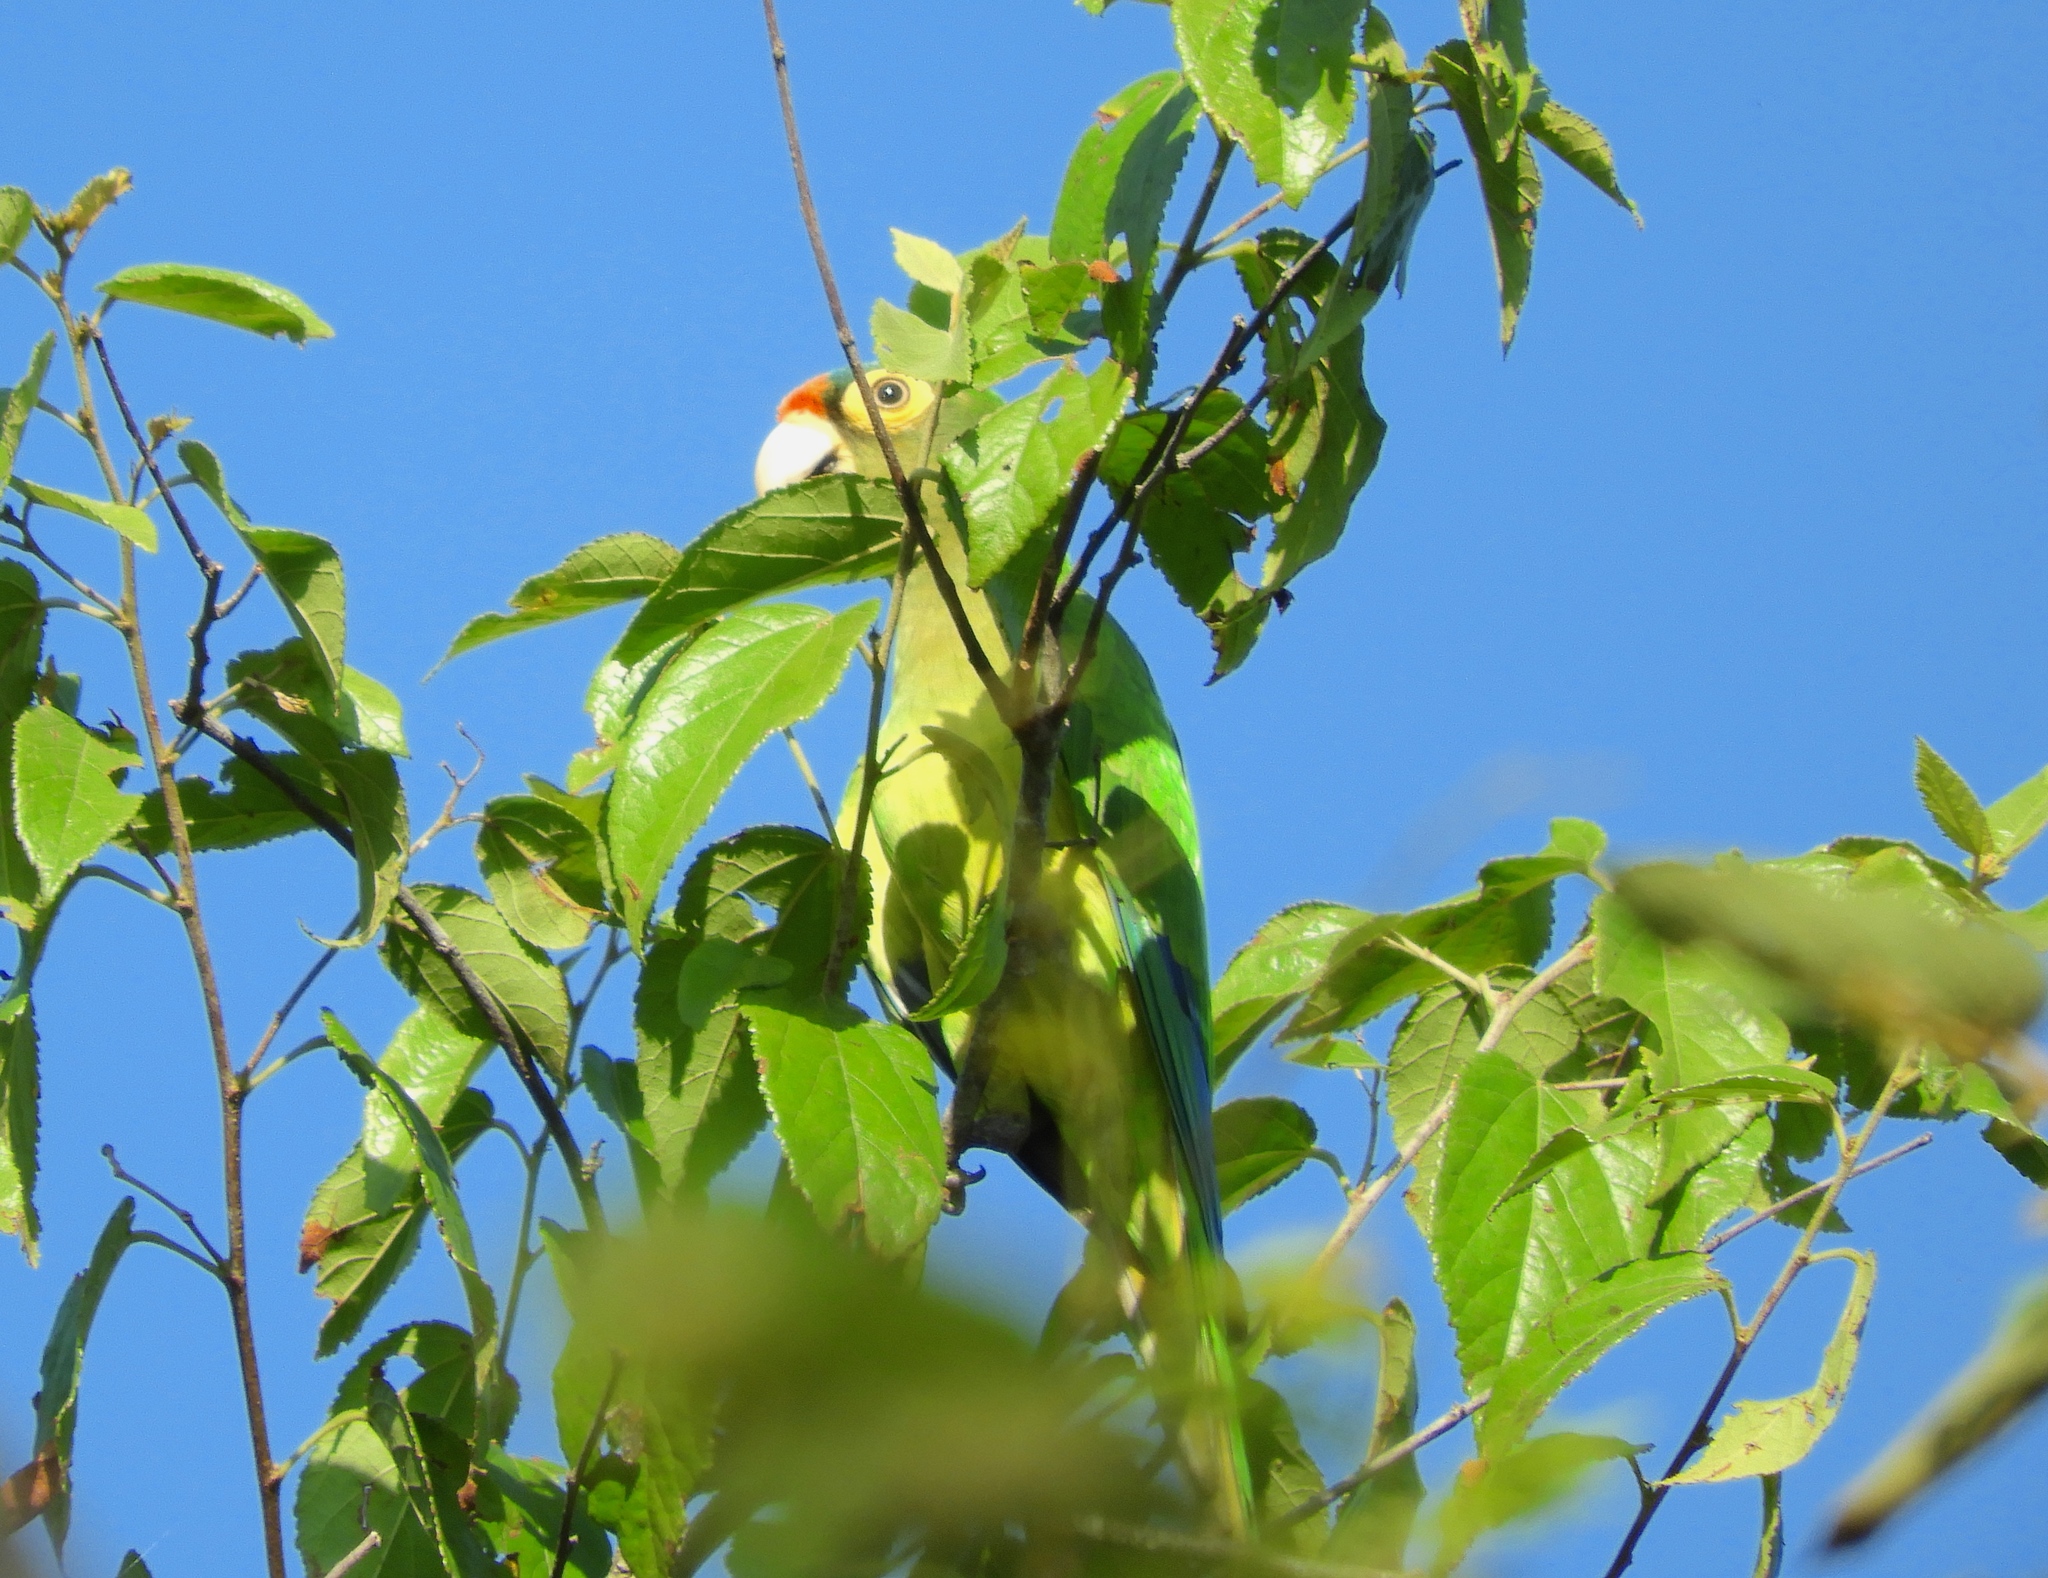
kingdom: Animalia
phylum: Chordata
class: Aves
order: Psittaciformes
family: Psittacidae
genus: Aratinga
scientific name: Aratinga canicularis
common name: Orange-fronted parakeet
